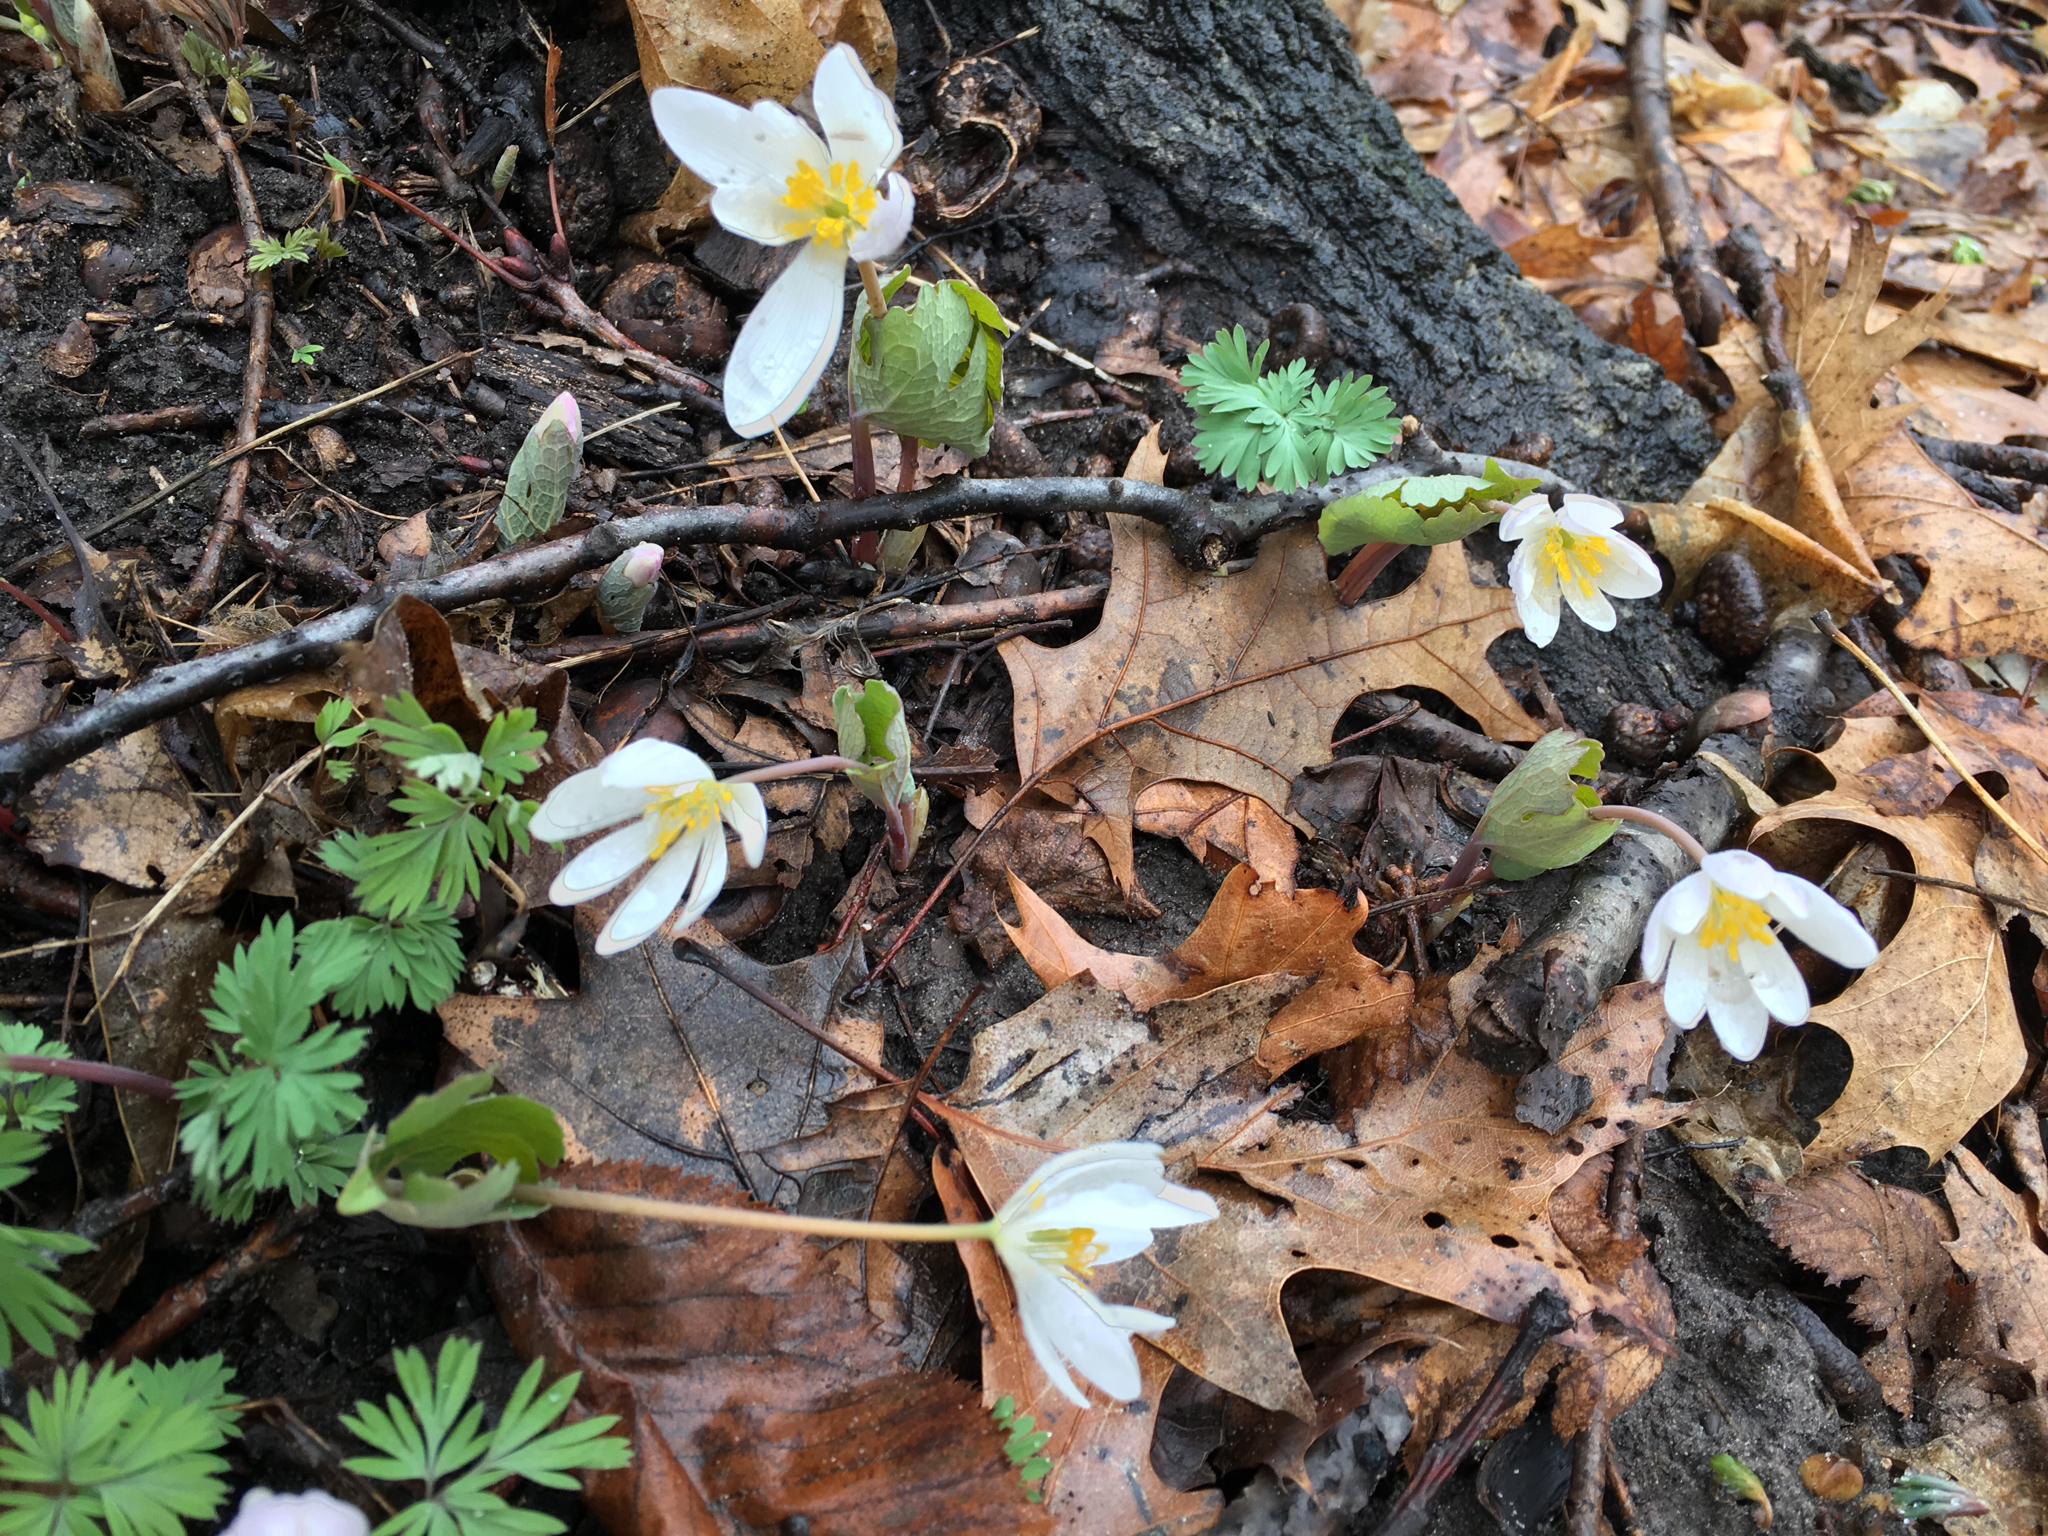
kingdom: Plantae
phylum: Tracheophyta
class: Magnoliopsida
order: Ranunculales
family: Papaveraceae
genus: Sanguinaria
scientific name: Sanguinaria canadensis
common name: Bloodroot
